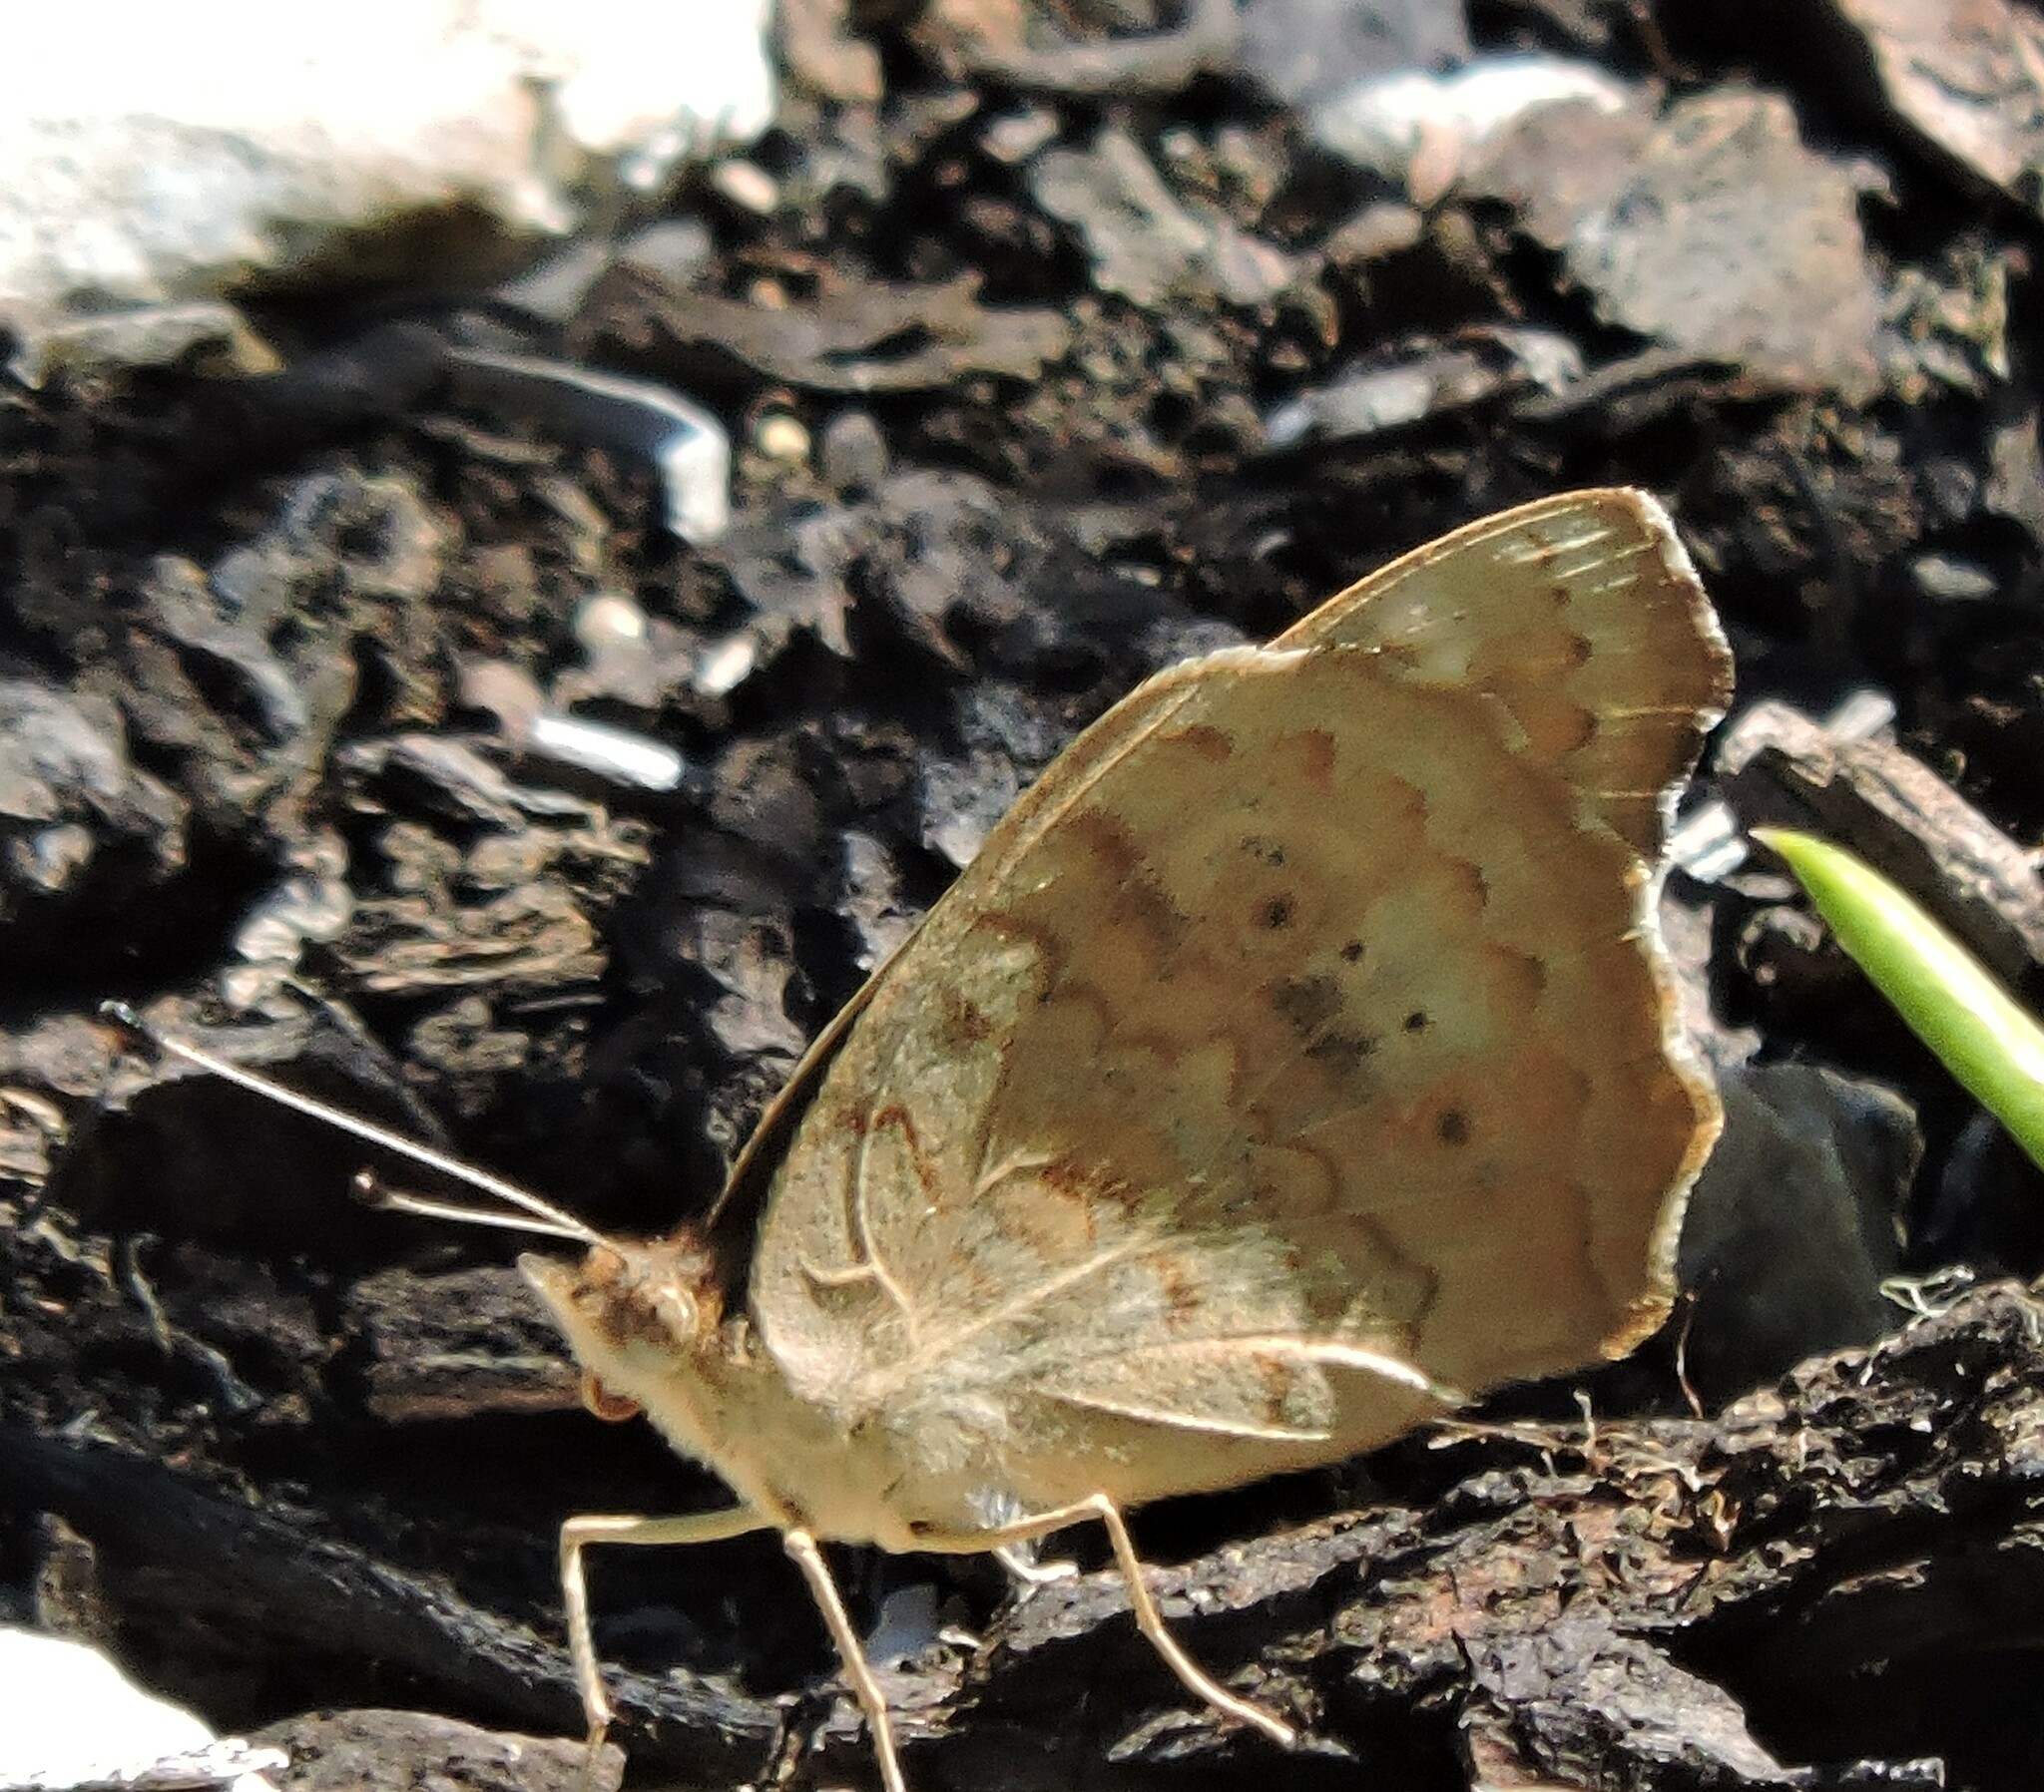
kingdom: Animalia
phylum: Arthropoda
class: Insecta
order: Lepidoptera
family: Nymphalidae
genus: Junonia
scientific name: Junonia grisea
